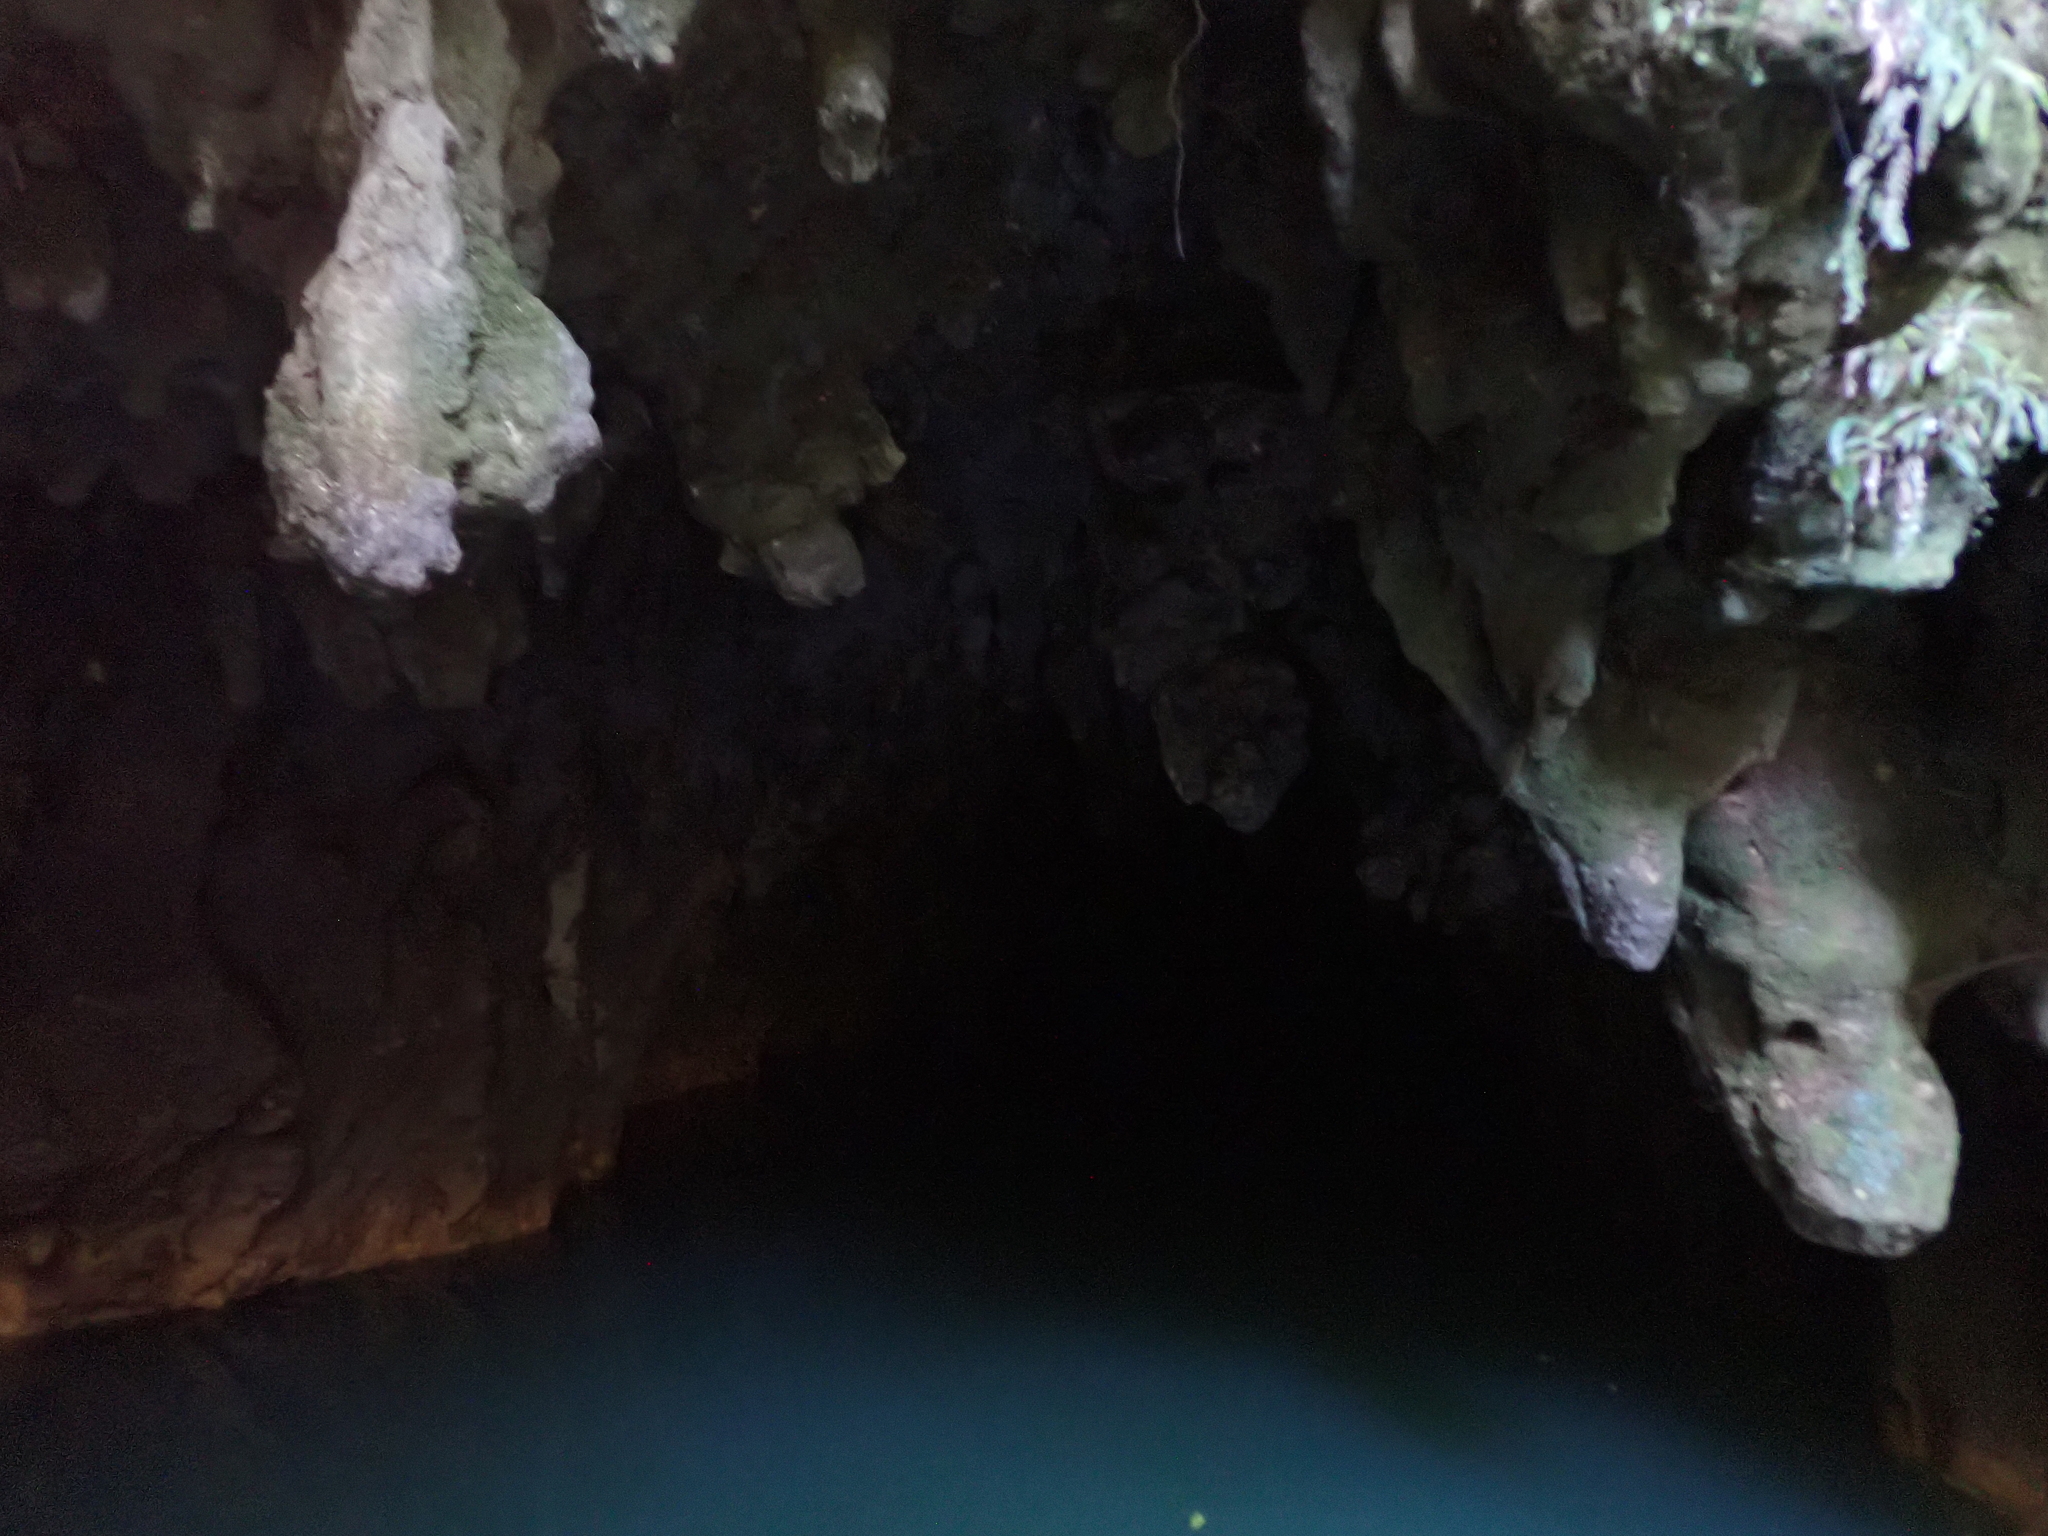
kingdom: Animalia
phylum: Arthropoda
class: Insecta
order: Diptera
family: Keroplatidae
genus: Arachnocampa
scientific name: Arachnocampa luminosa
